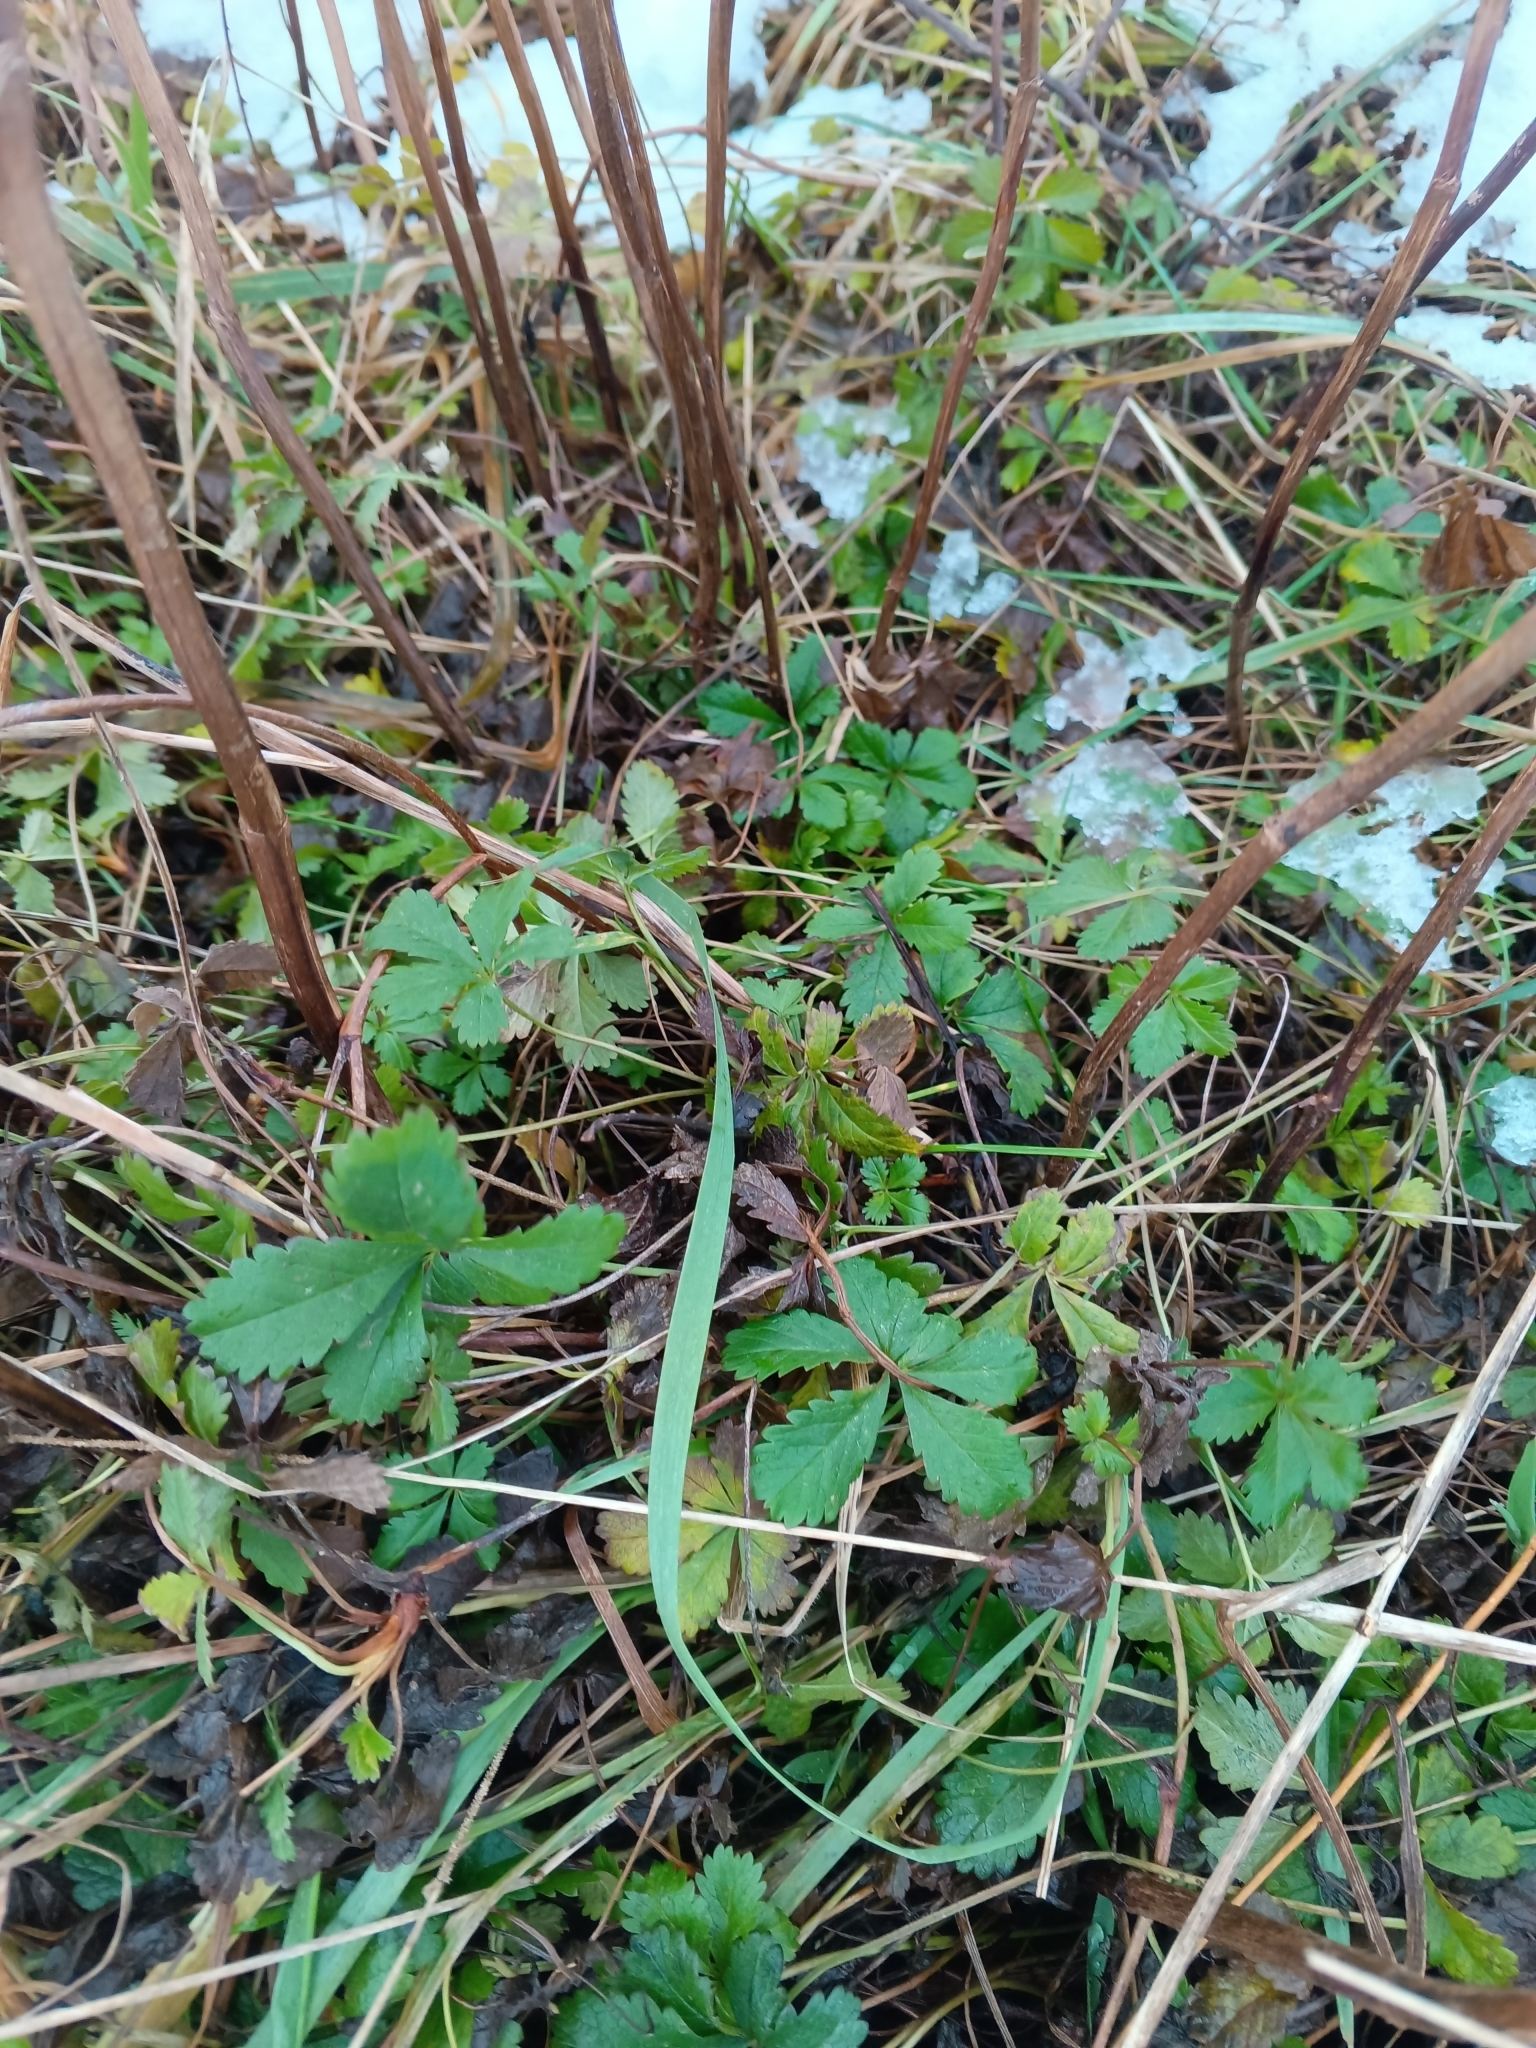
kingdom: Plantae
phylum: Tracheophyta
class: Magnoliopsida
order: Rosales
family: Rosaceae
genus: Potentilla
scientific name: Potentilla reptans
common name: Creeping cinquefoil
